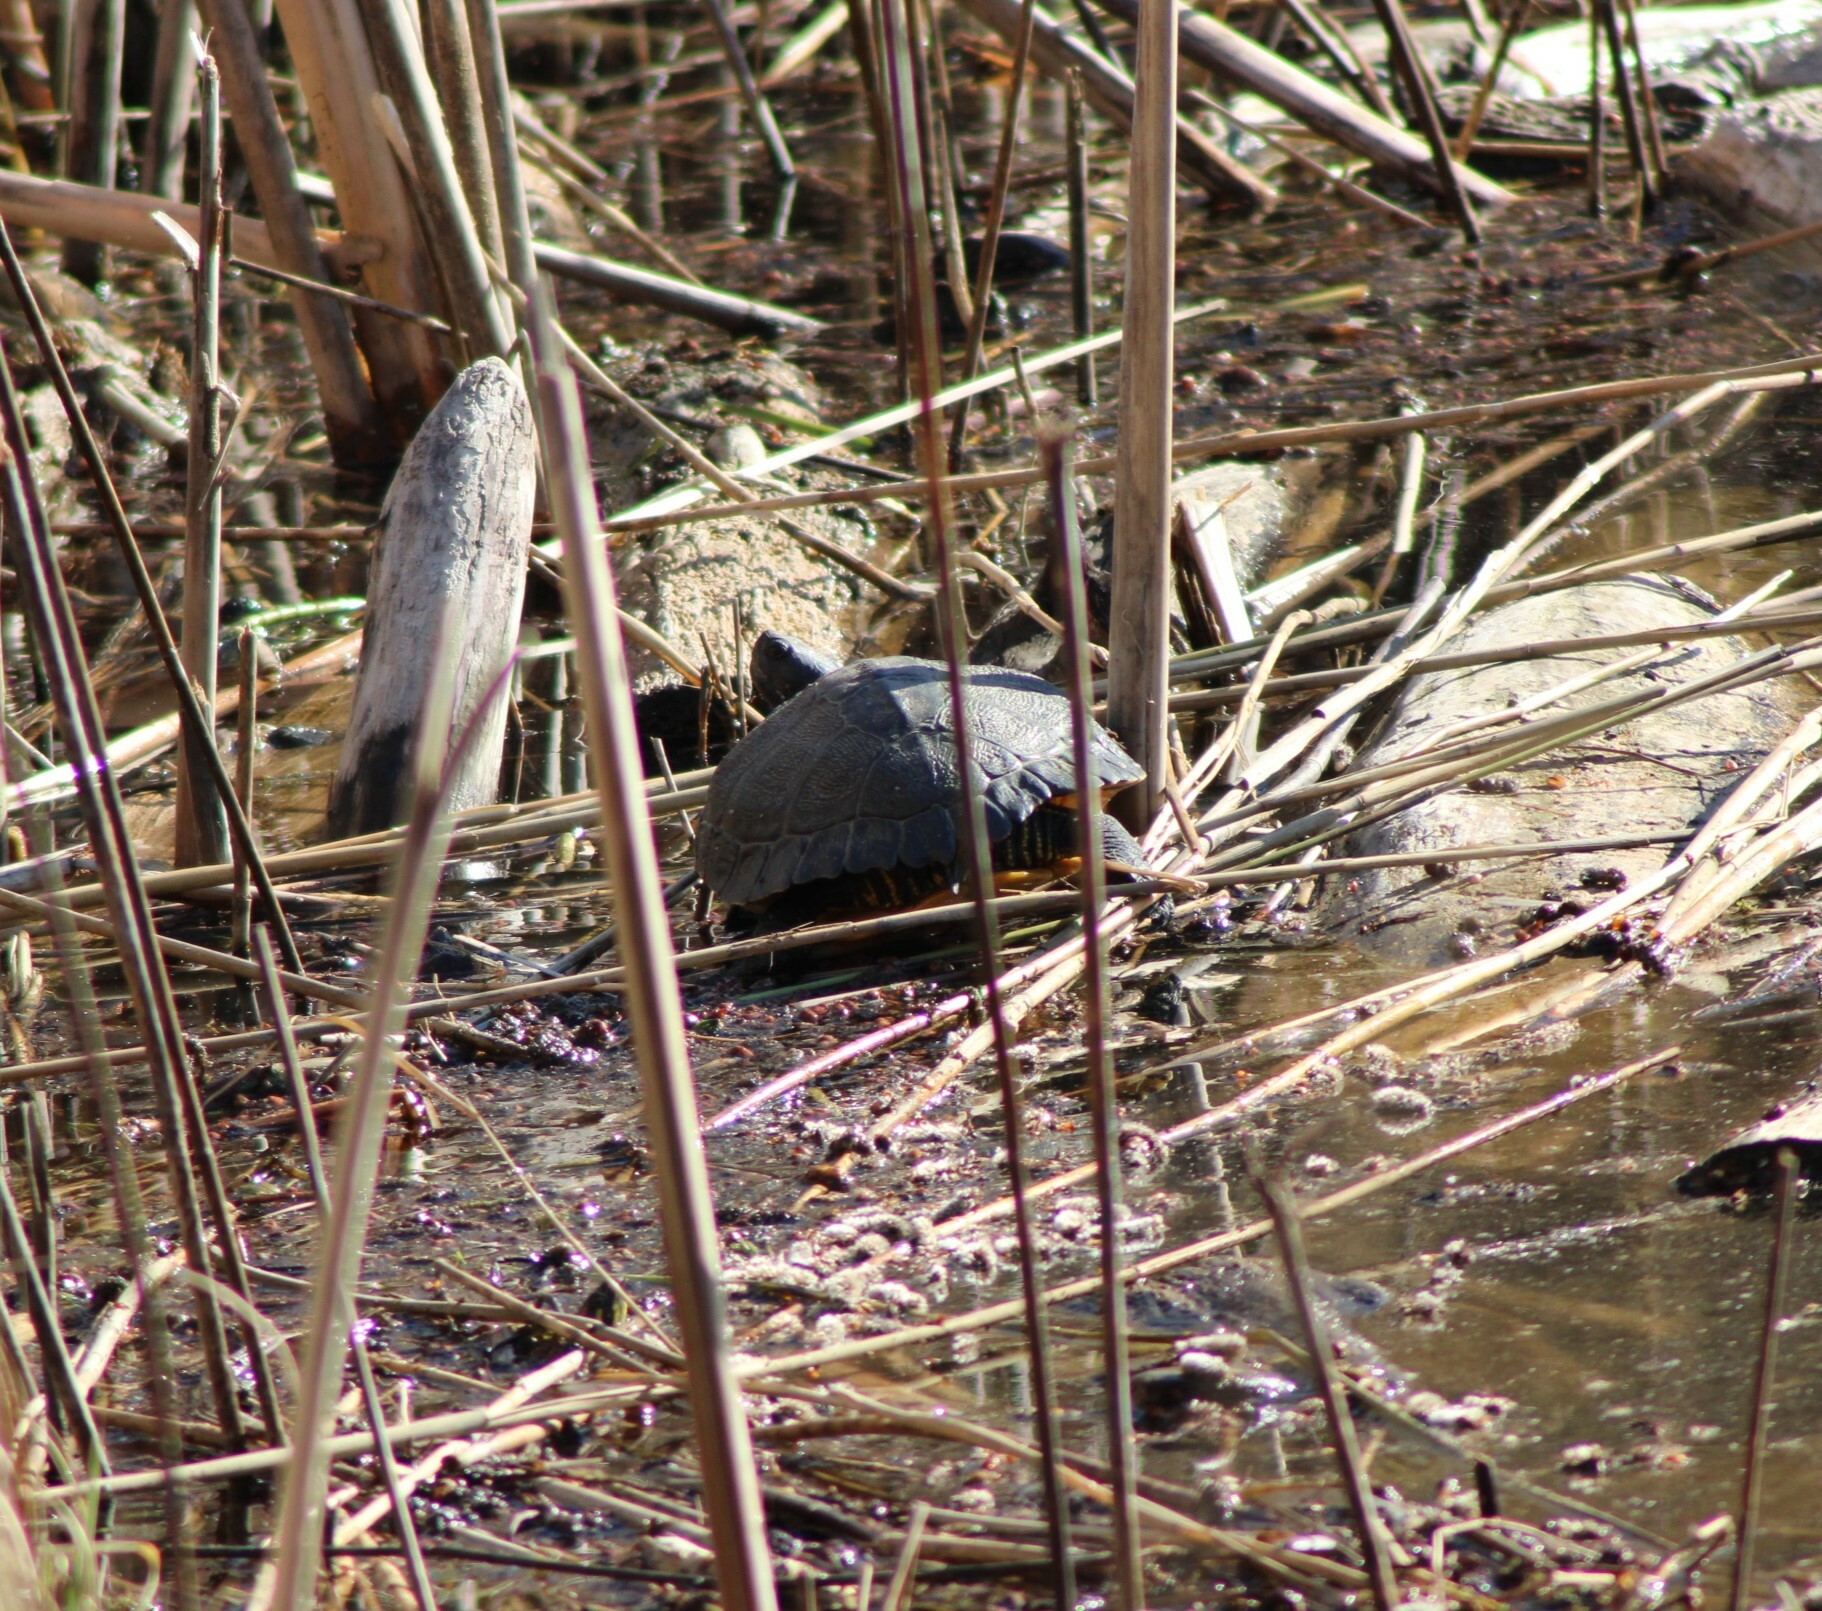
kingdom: Animalia
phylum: Chordata
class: Testudines
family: Emydidae
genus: Trachemys
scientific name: Trachemys scripta
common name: Slider
